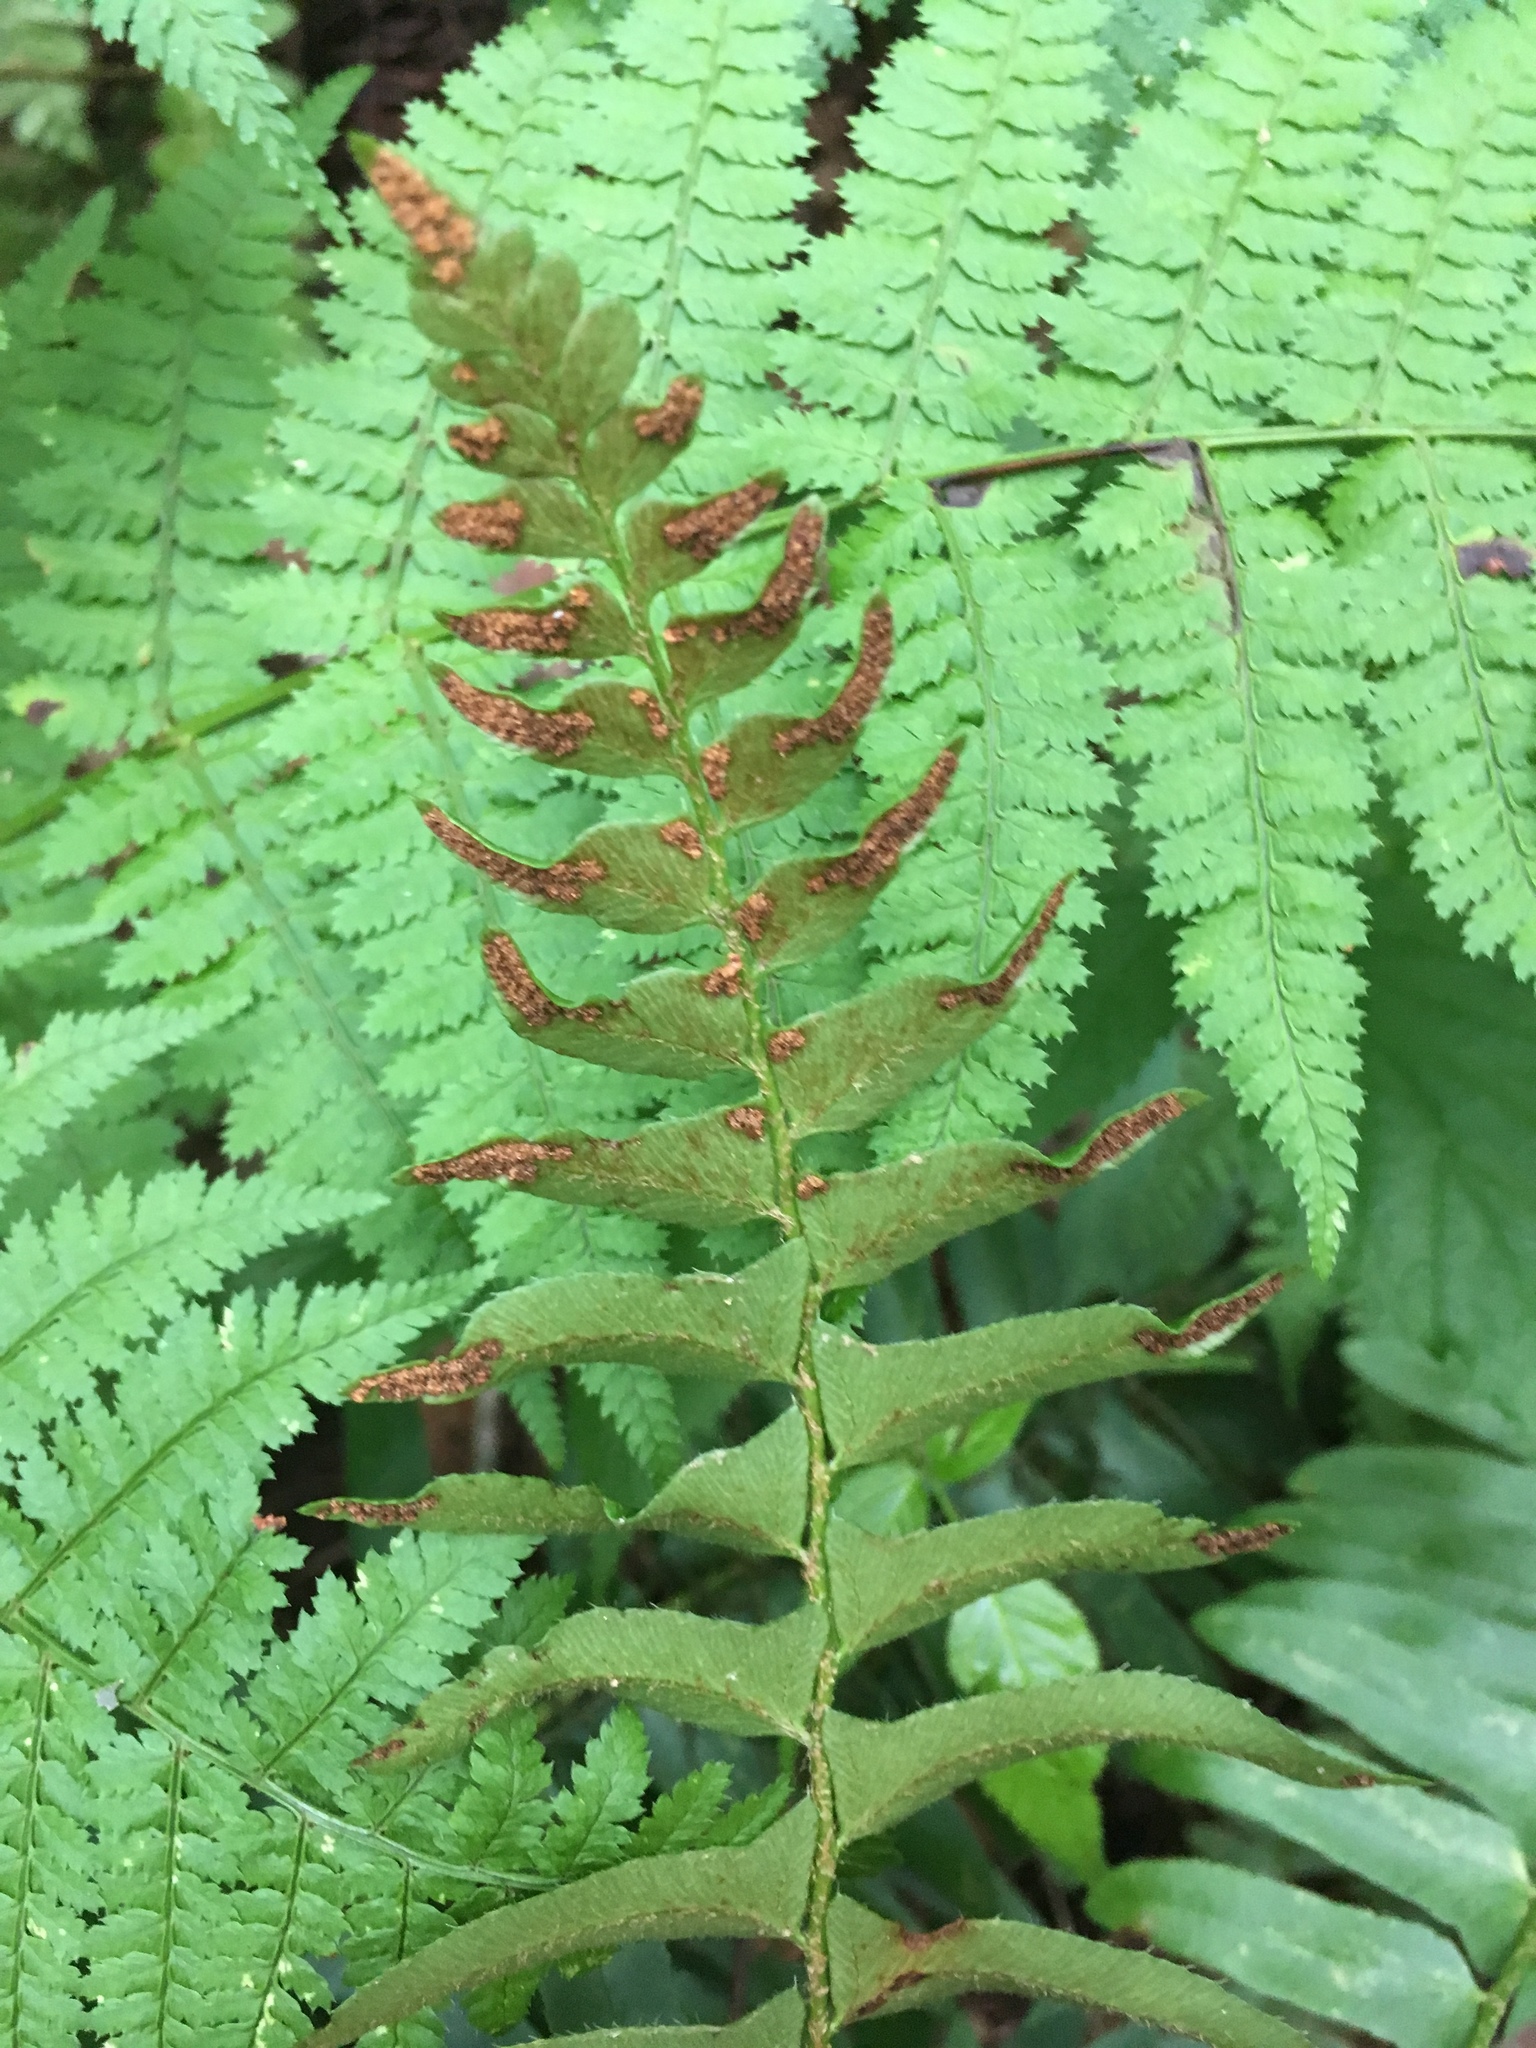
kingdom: Plantae
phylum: Tracheophyta
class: Polypodiopsida
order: Polypodiales
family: Dryopteridaceae
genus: Polystichum
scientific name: Polystichum acrostichoides
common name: Christmas fern
